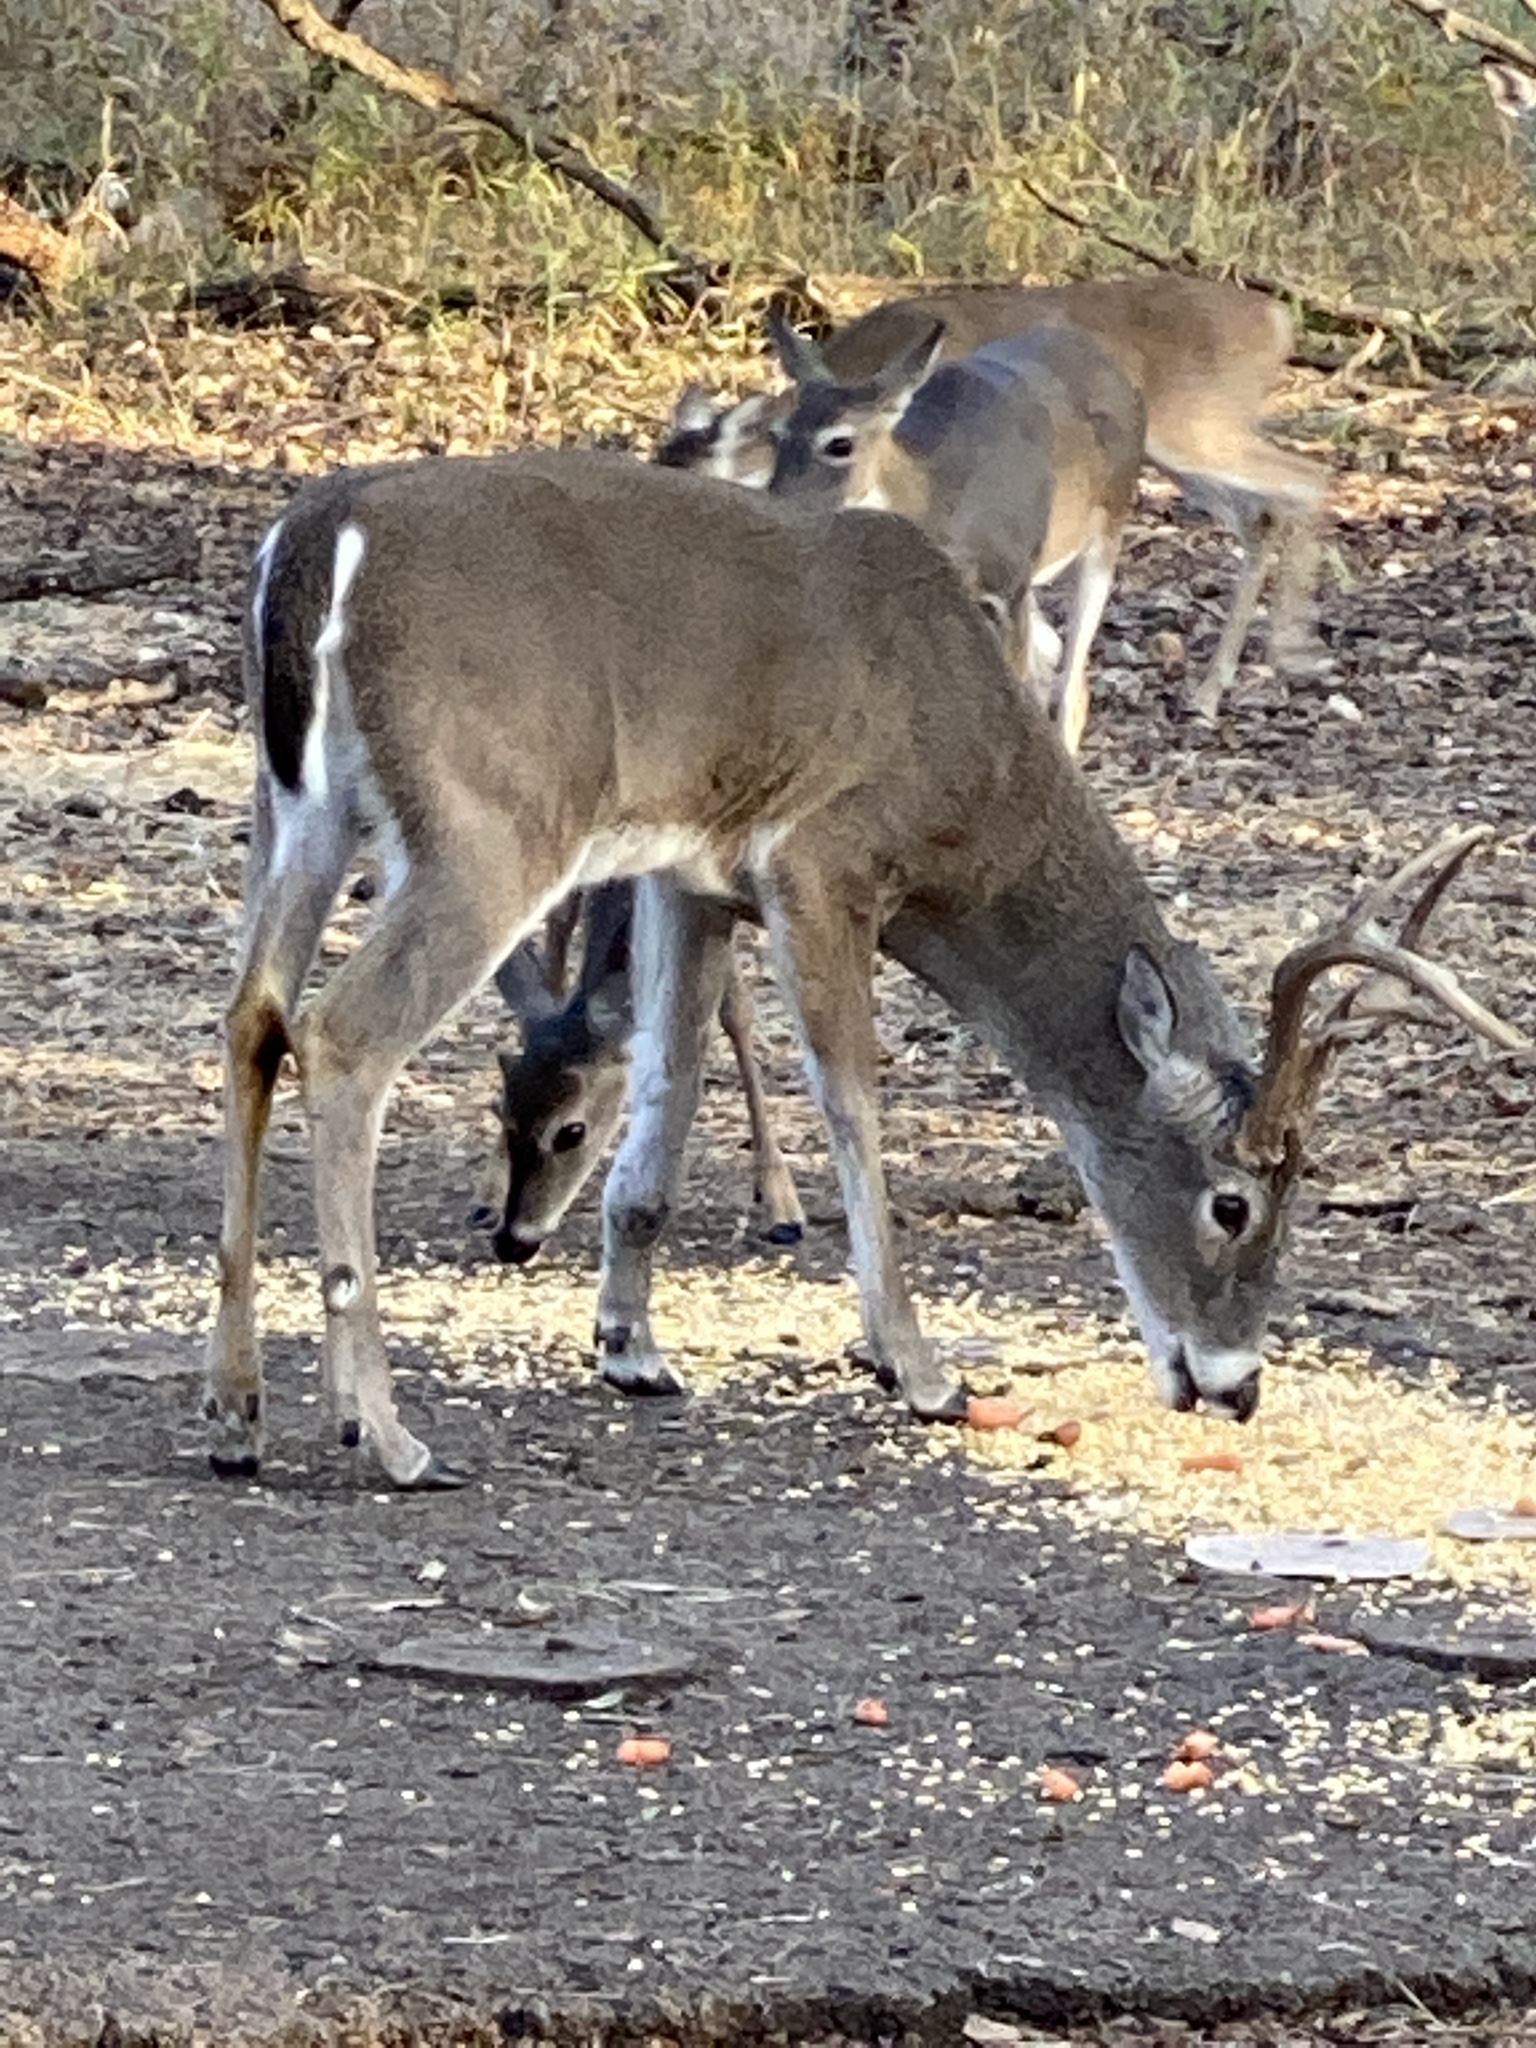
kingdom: Animalia
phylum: Chordata
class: Mammalia
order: Artiodactyla
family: Cervidae
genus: Odocoileus
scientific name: Odocoileus virginianus
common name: White-tailed deer
